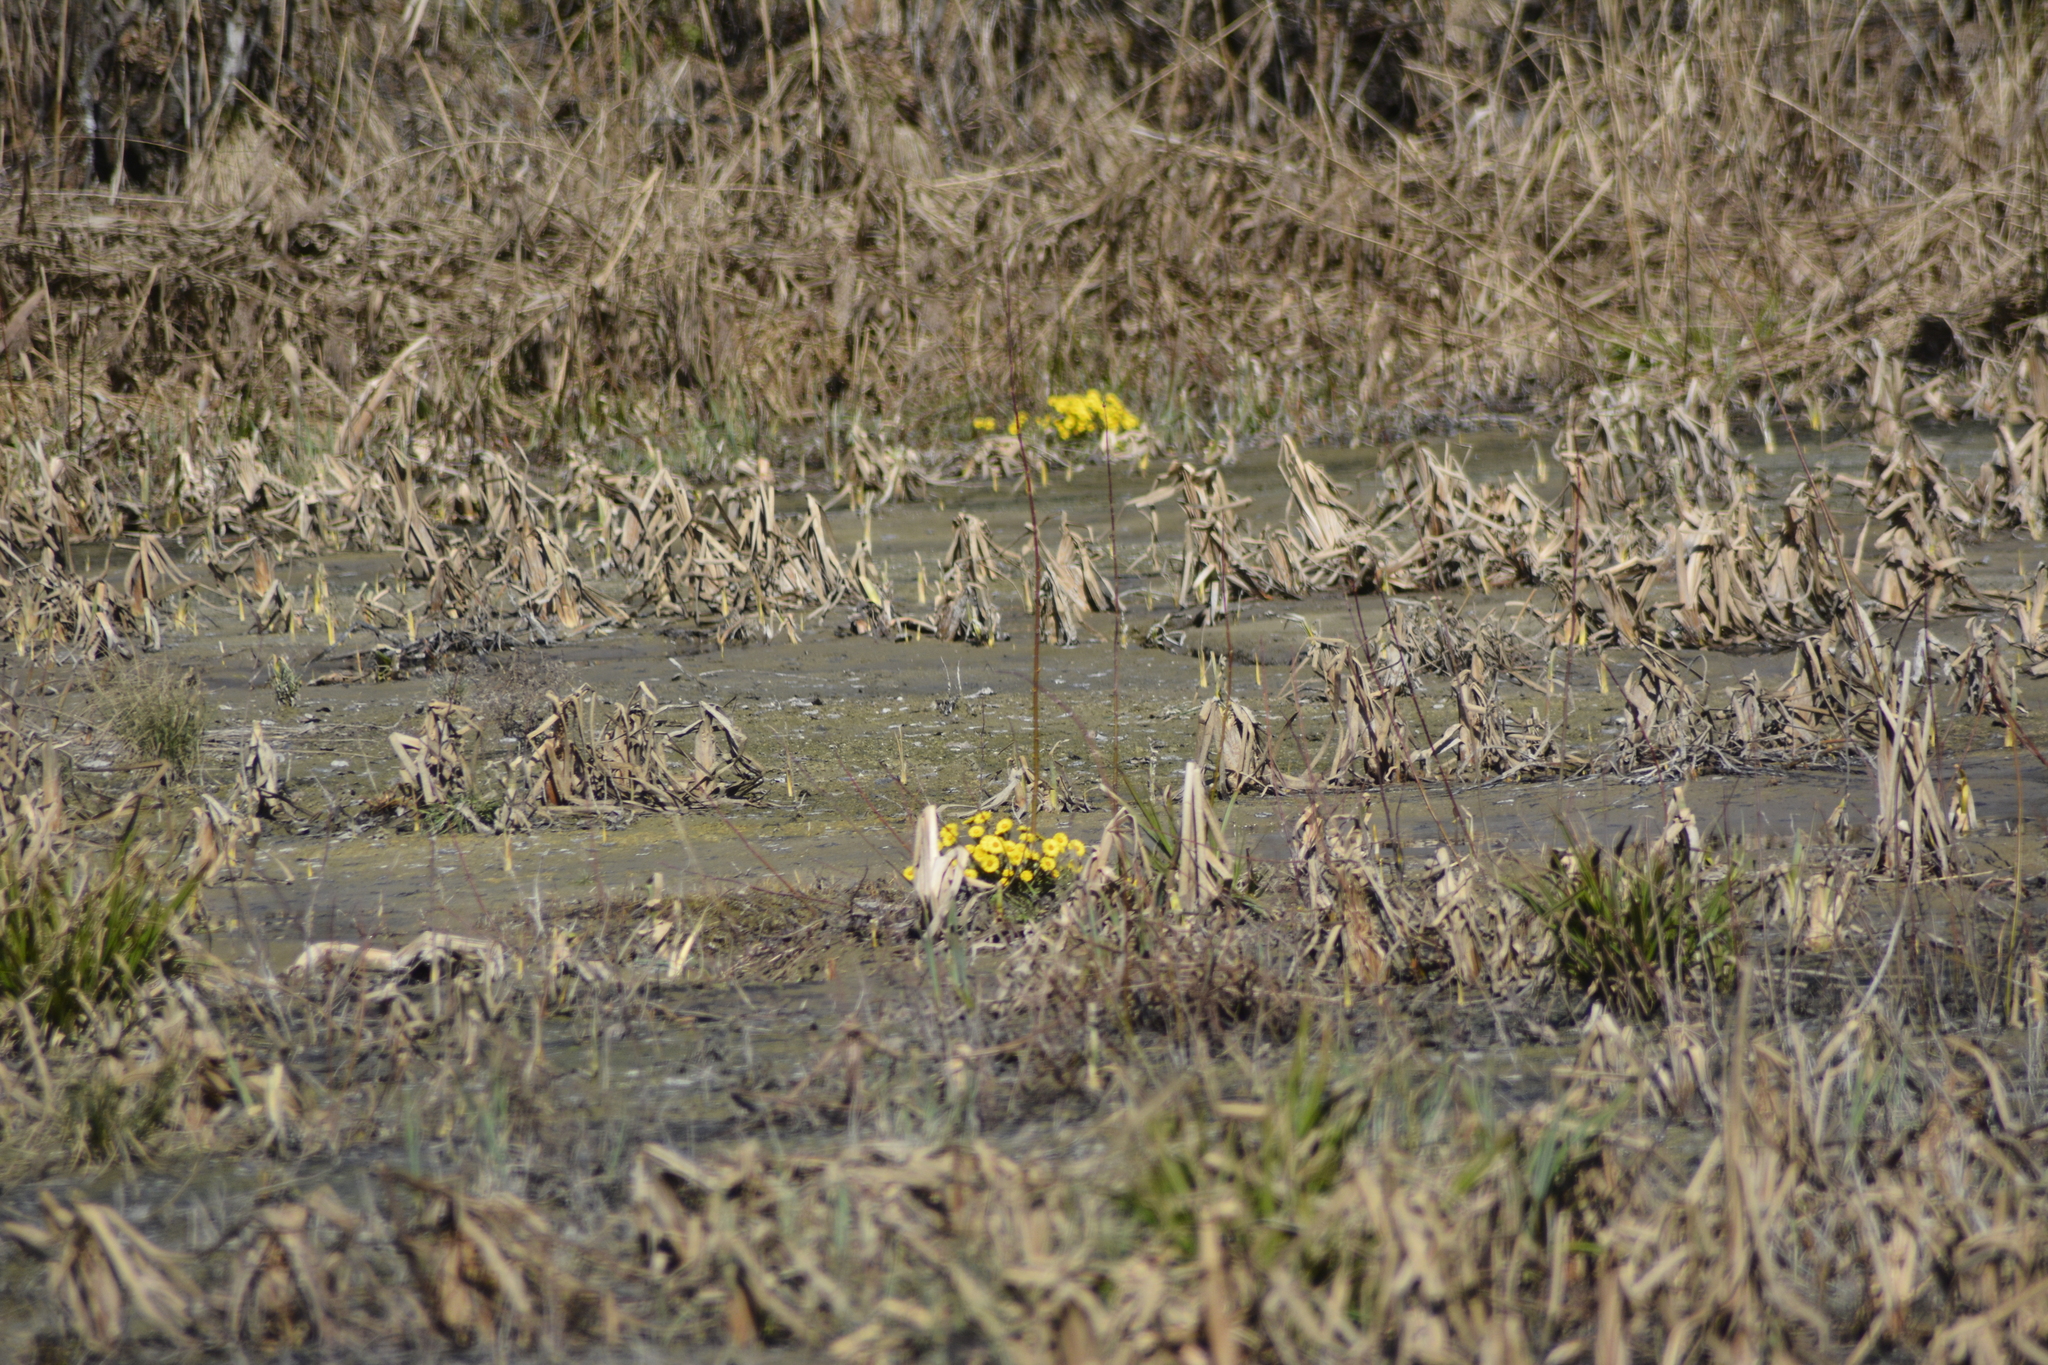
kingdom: Plantae
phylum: Tracheophyta
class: Magnoliopsida
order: Asterales
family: Asteraceae
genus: Tussilago
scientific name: Tussilago farfara
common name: Coltsfoot
